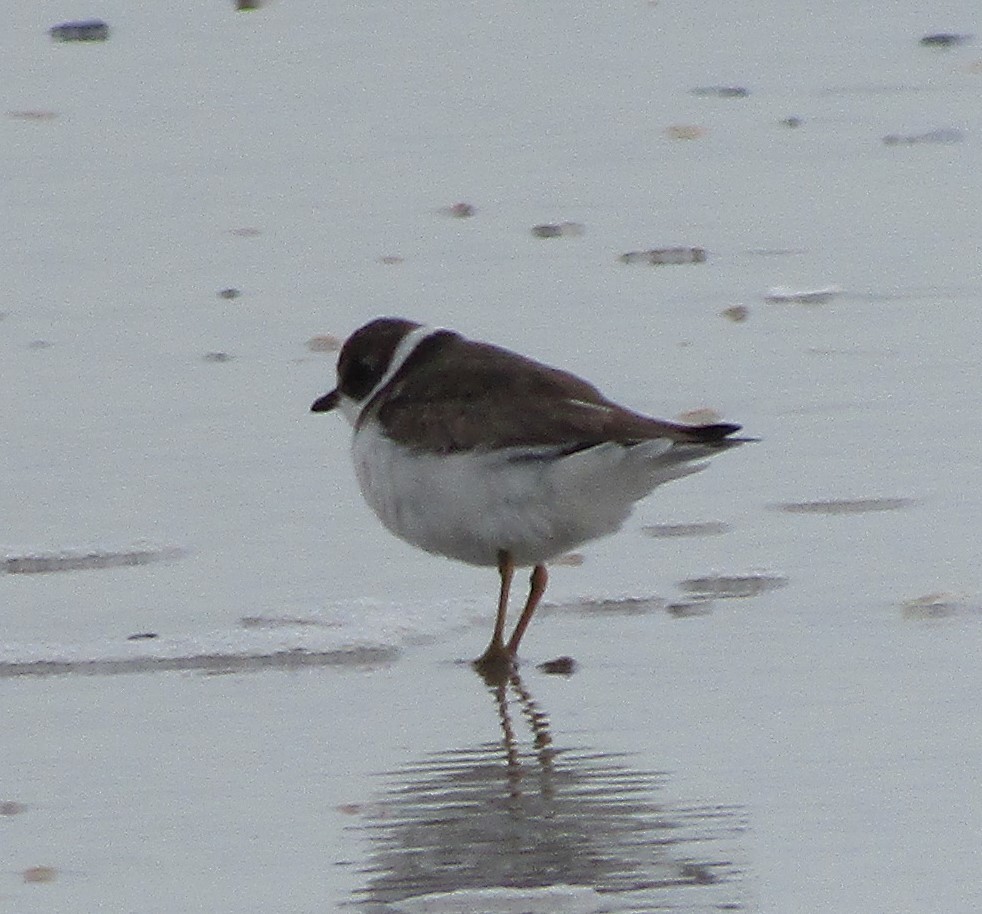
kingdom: Animalia
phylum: Chordata
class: Aves
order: Charadriiformes
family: Charadriidae
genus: Charadrius
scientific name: Charadrius semipalmatus
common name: Semipalmated plover
